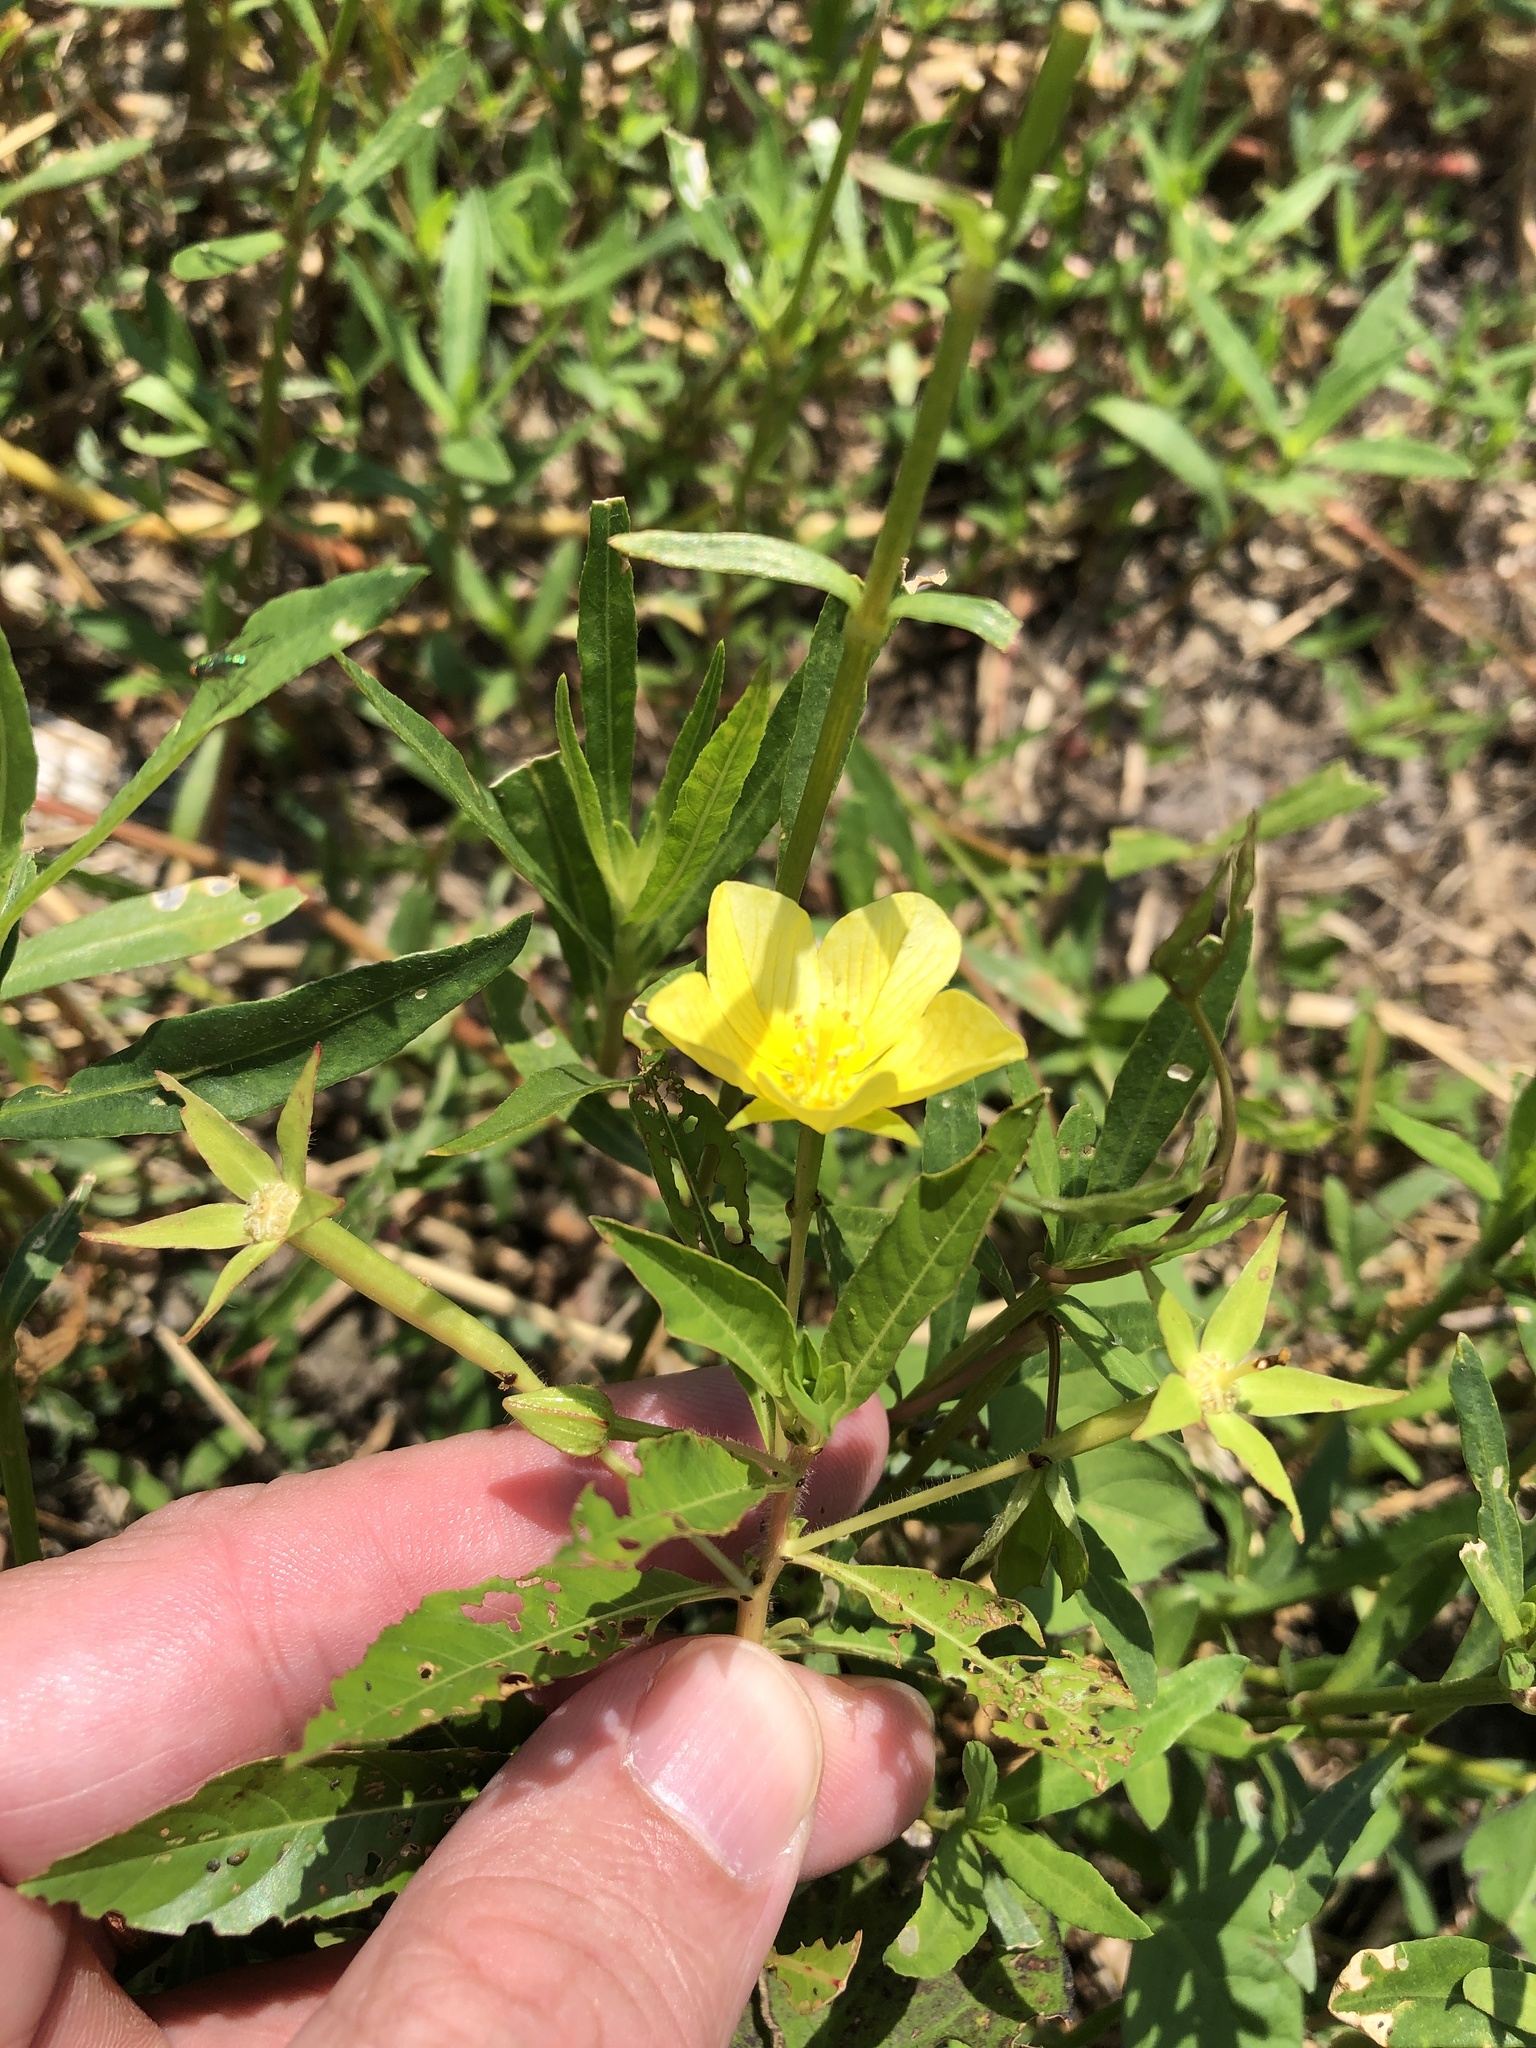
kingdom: Plantae
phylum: Tracheophyta
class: Magnoliopsida
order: Myrtales
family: Onagraceae
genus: Ludwigia
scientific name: Ludwigia peploides
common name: Floating primrose-willow
